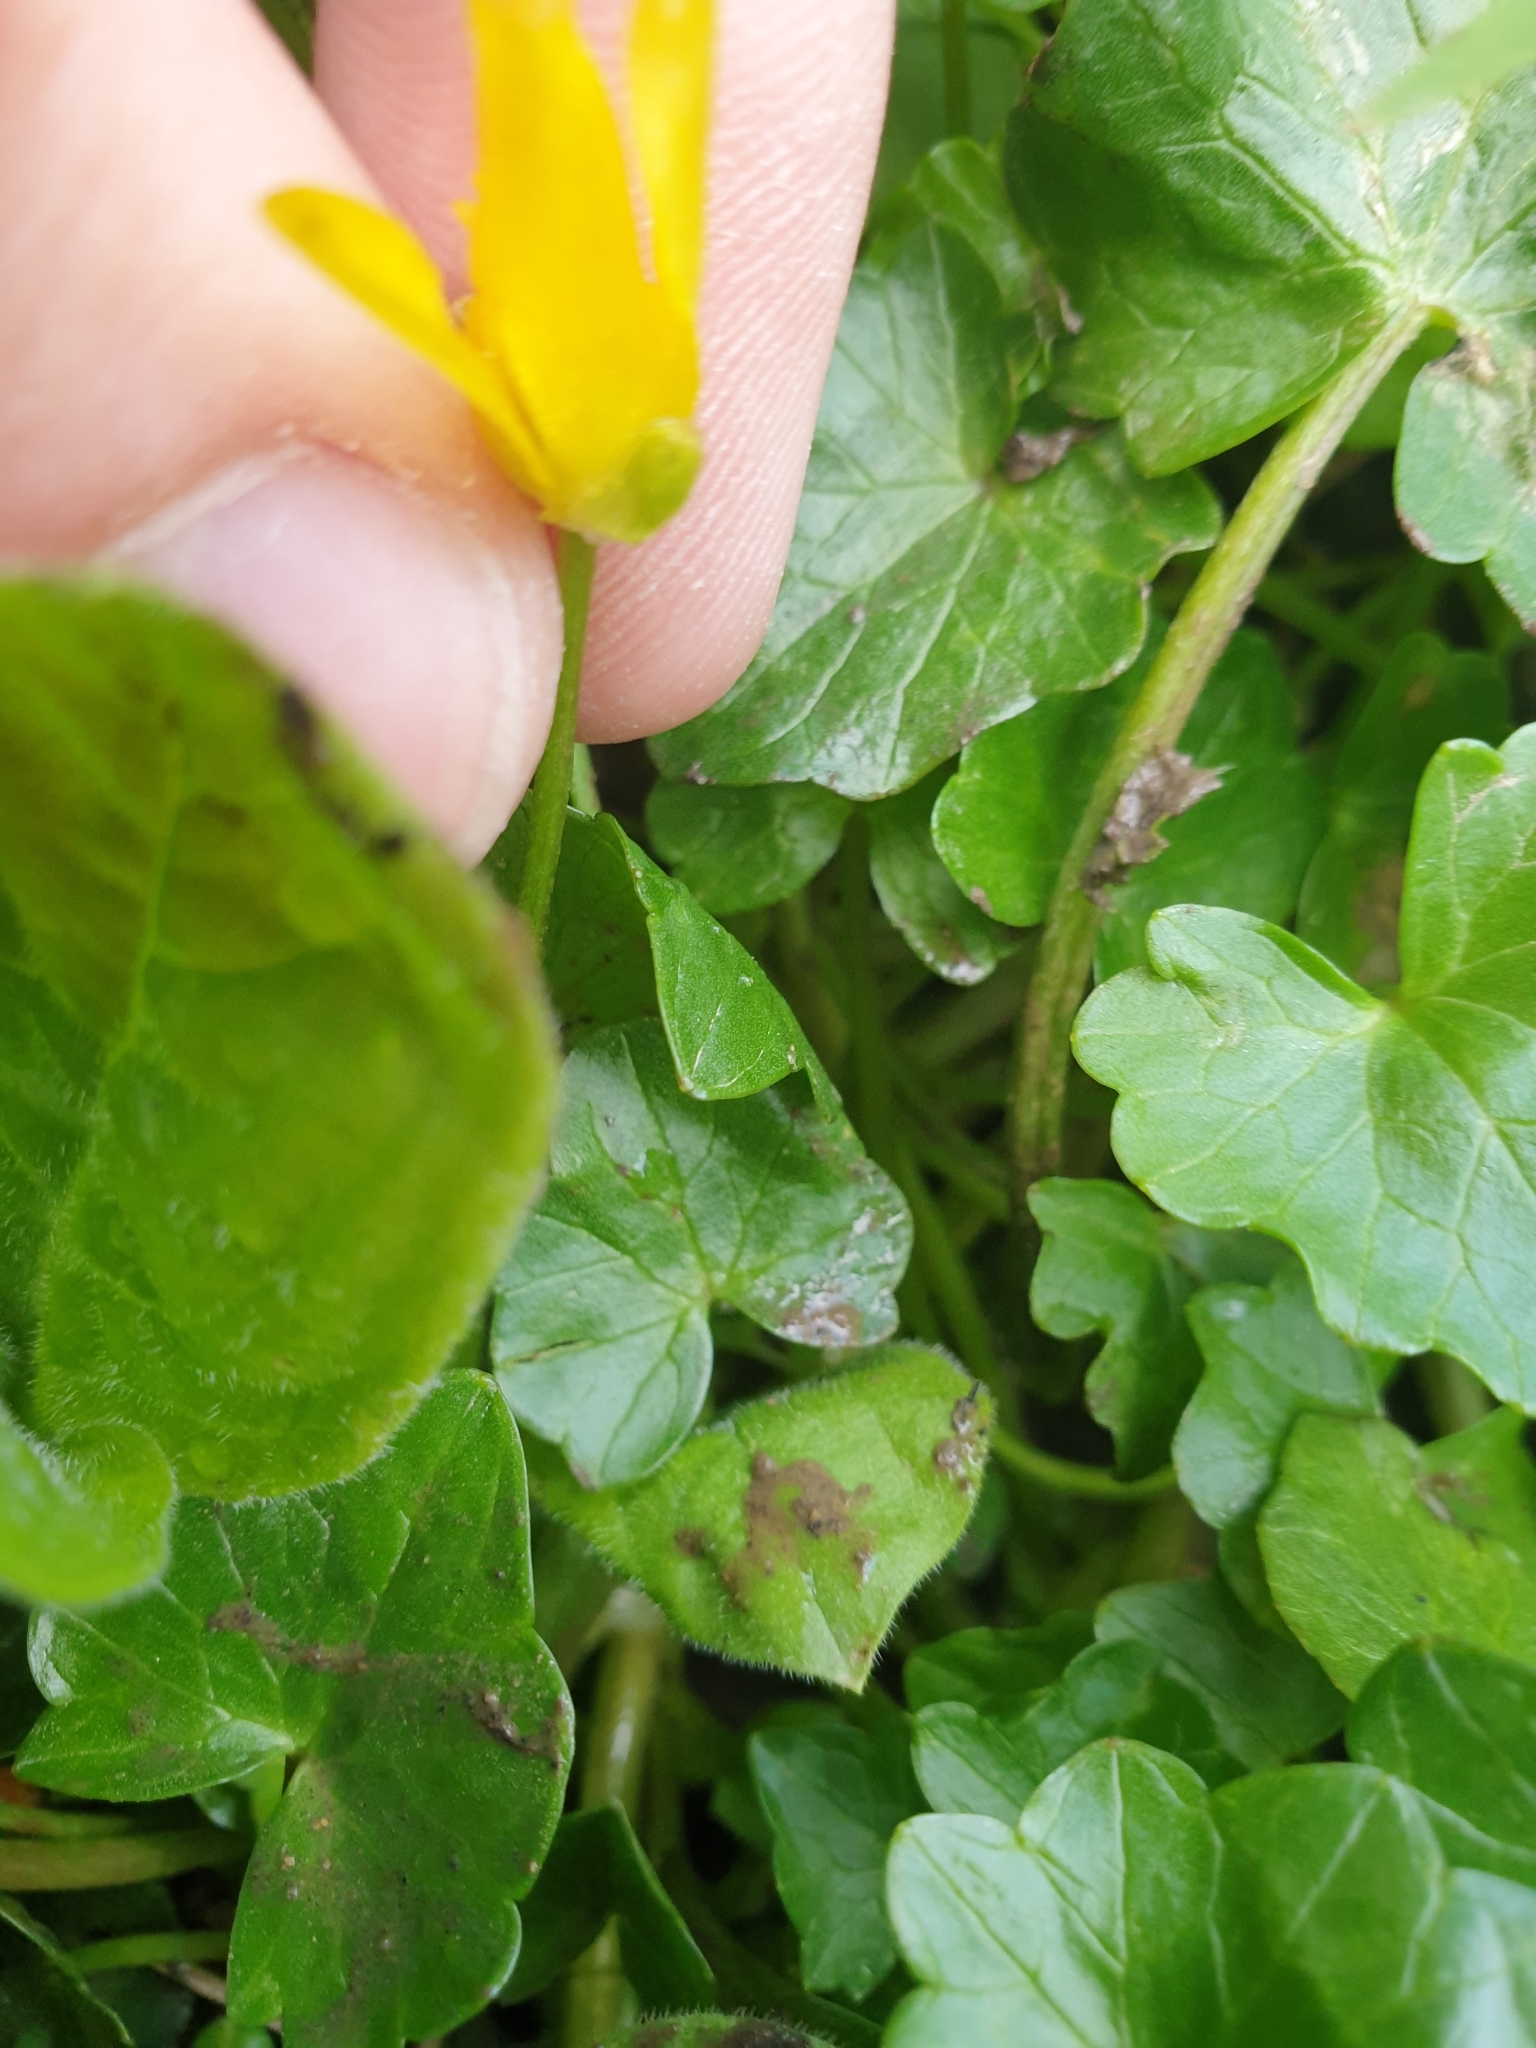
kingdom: Plantae
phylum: Tracheophyta
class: Magnoliopsida
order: Ranunculales
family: Ranunculaceae
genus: Ficaria
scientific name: Ficaria verna
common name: Lesser celandine
